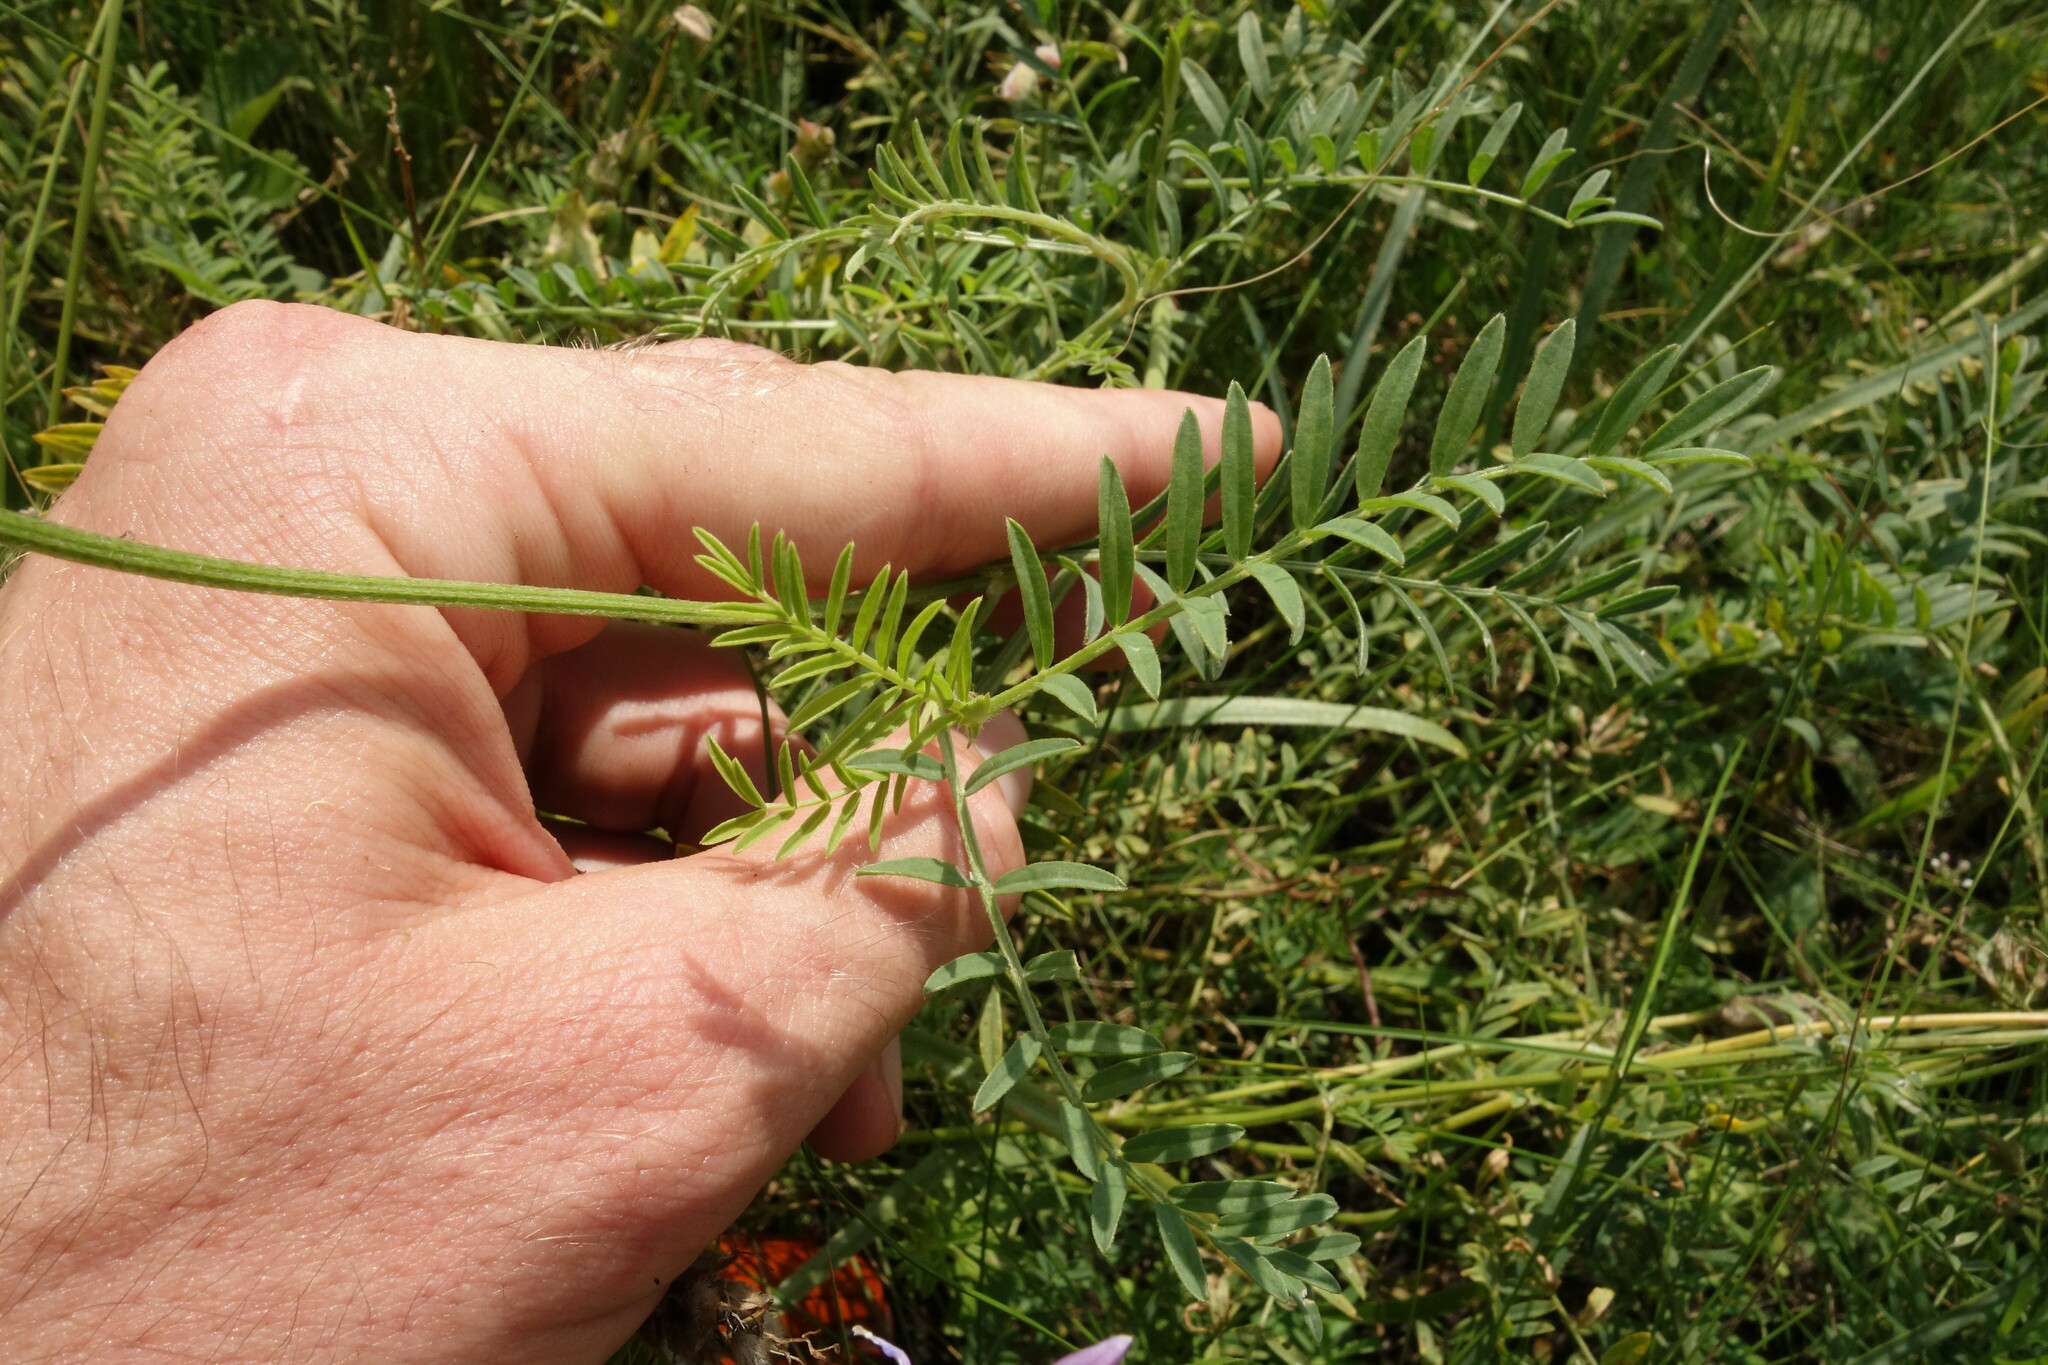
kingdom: Plantae
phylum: Tracheophyta
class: Magnoliopsida
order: Fabales
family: Fabaceae
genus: Astragalus
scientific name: Astragalus onobrychis
